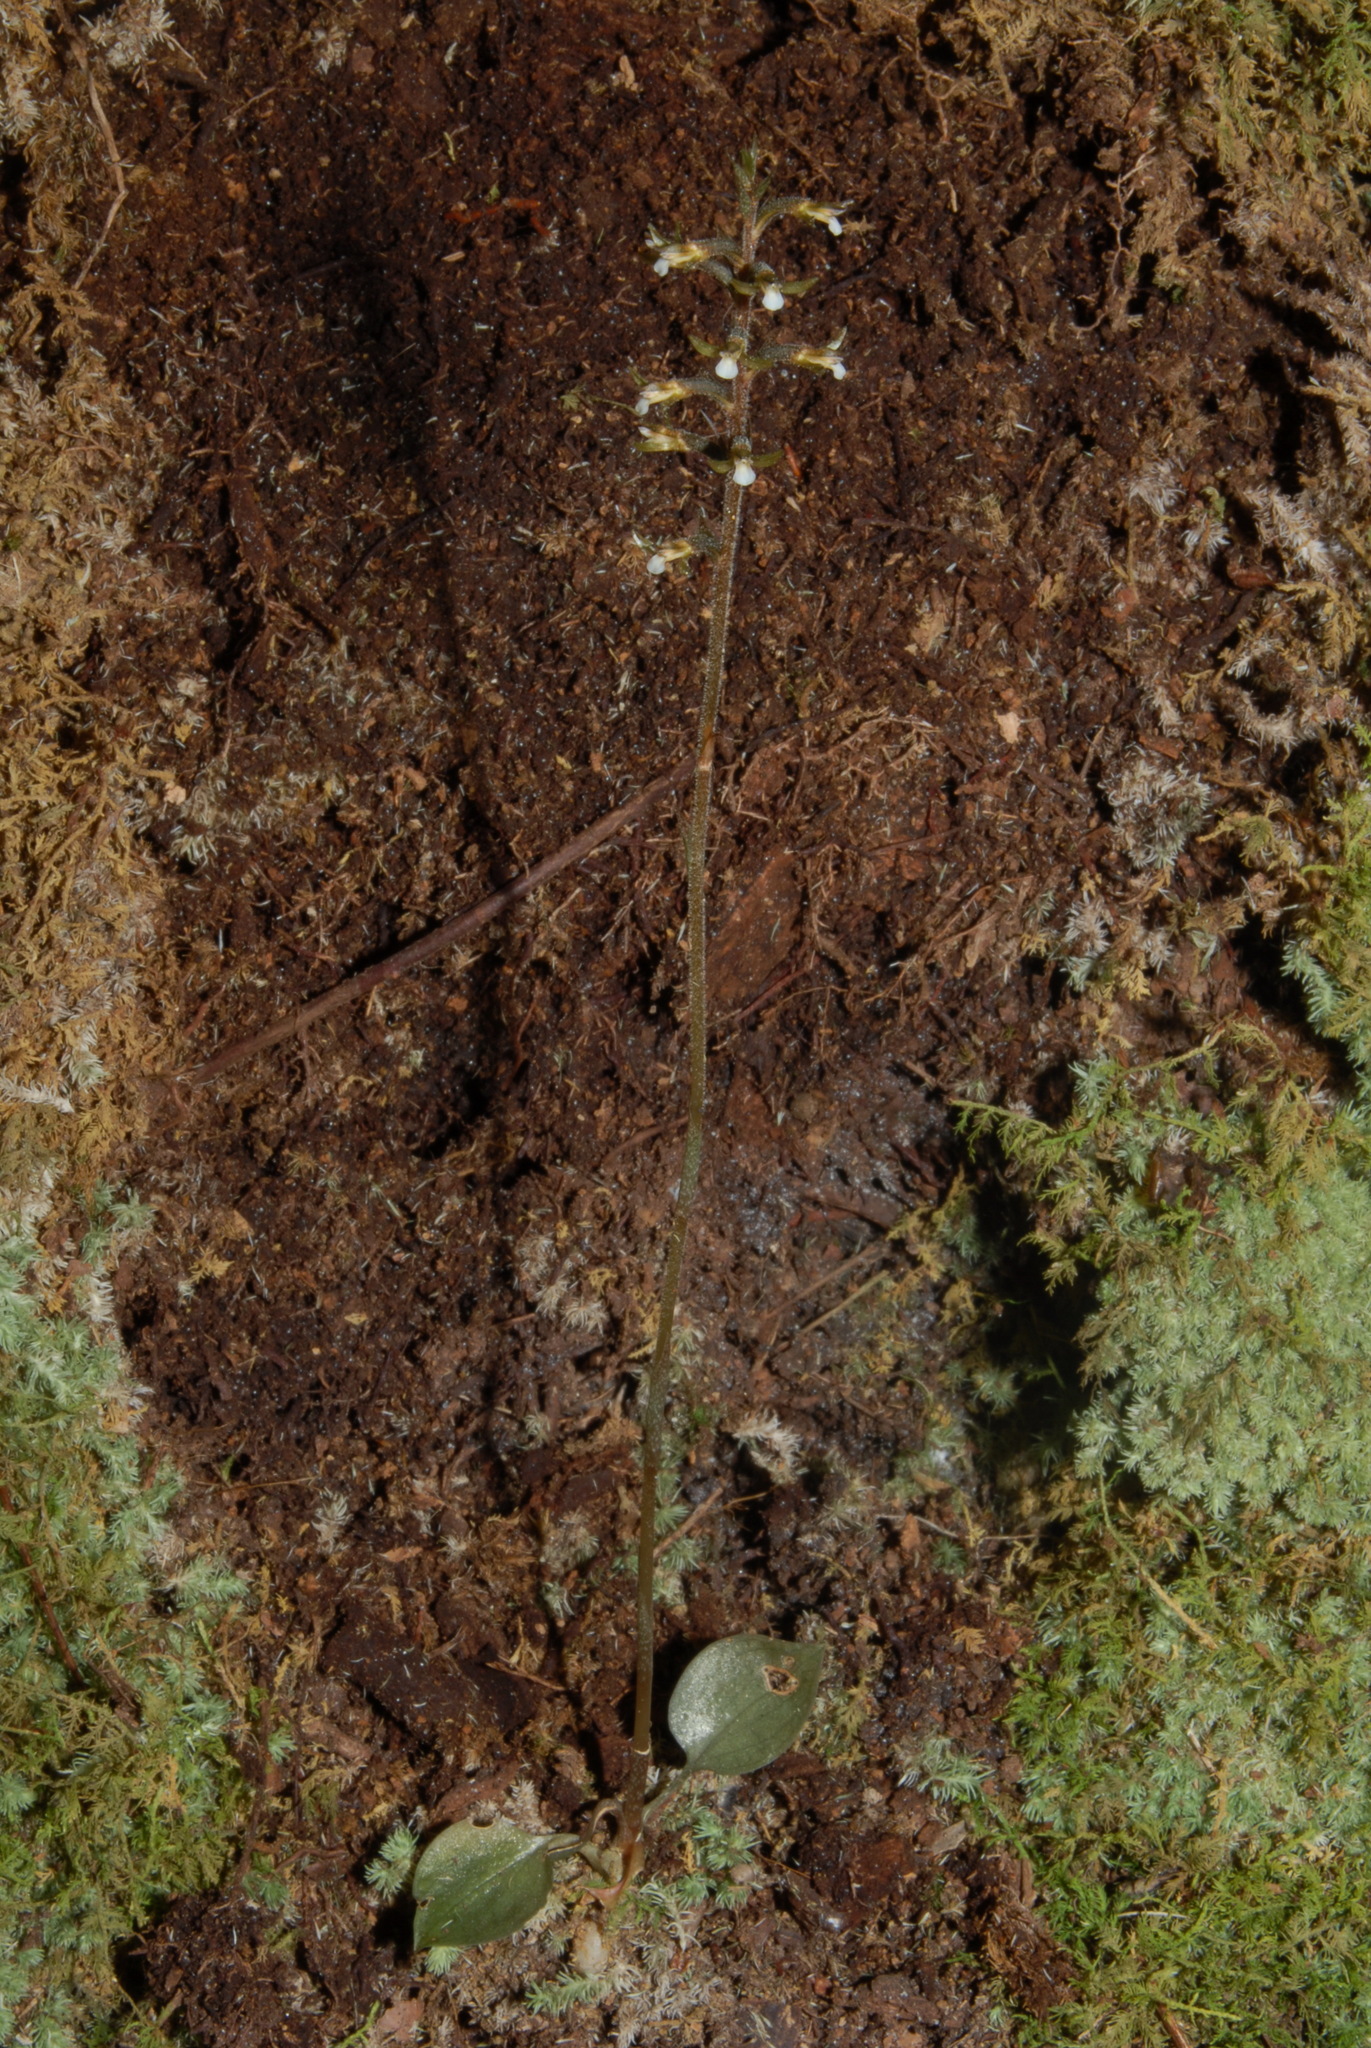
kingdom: Plantae
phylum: Tracheophyta
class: Liliopsida
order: Asparagales
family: Orchidaceae
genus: Cyclopogon
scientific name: Cyclopogon cranichoides
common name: Green ladies' tresses
